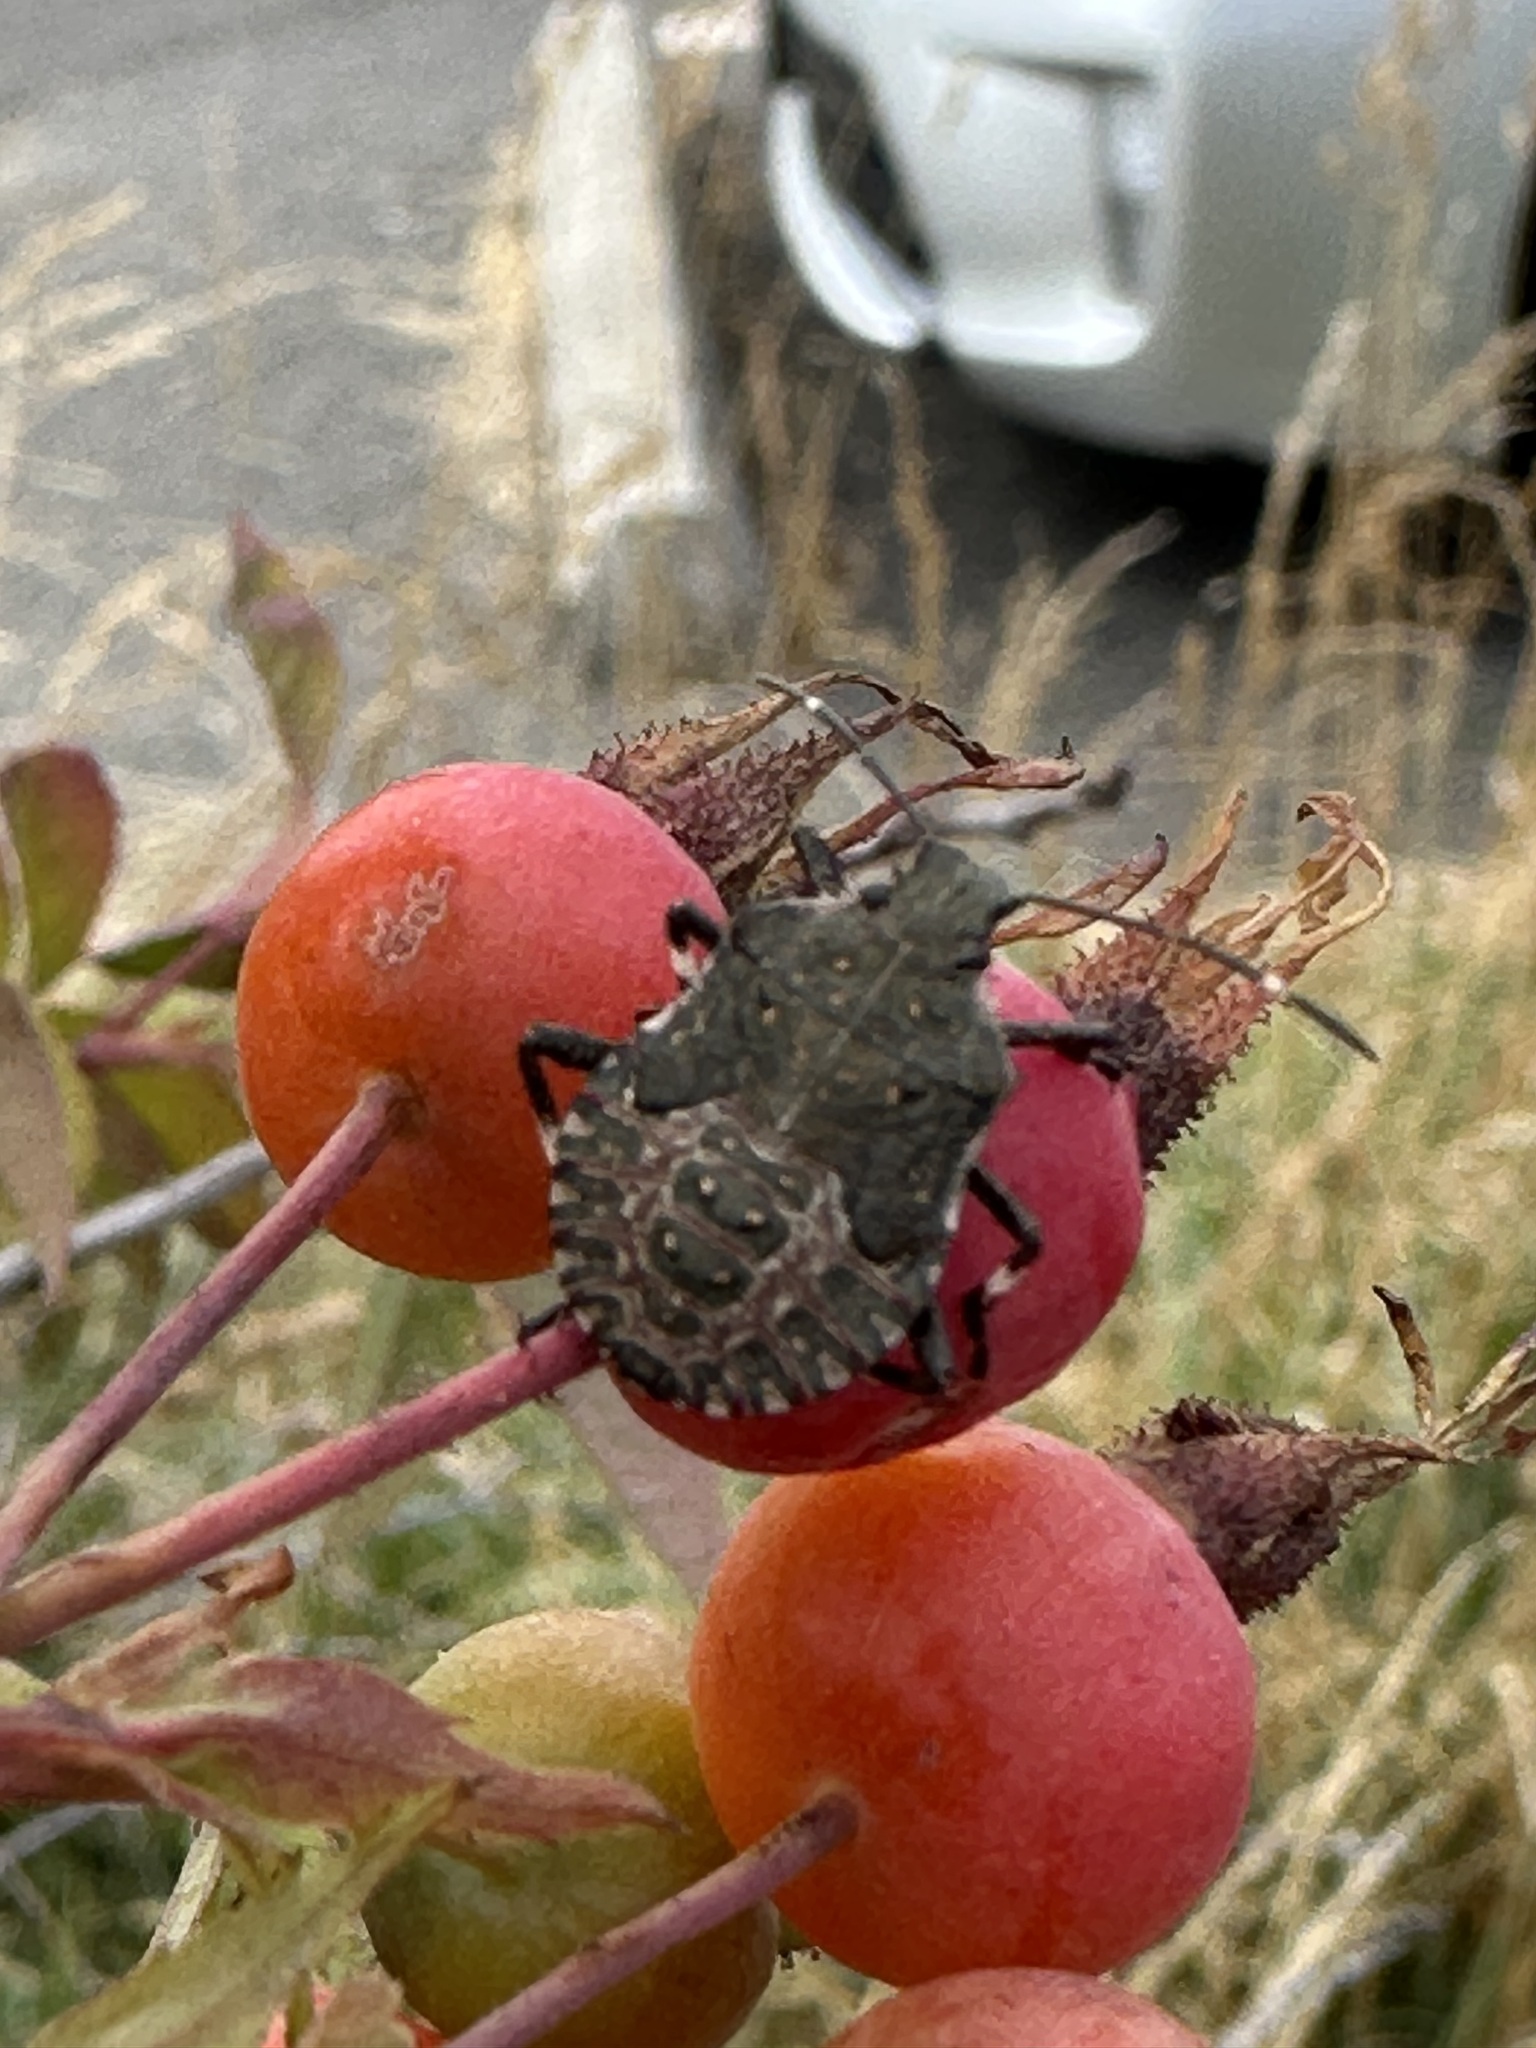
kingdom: Animalia
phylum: Arthropoda
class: Insecta
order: Hemiptera
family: Pentatomidae
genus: Halyomorpha
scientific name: Halyomorpha halys
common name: Brown marmorated stink bug
